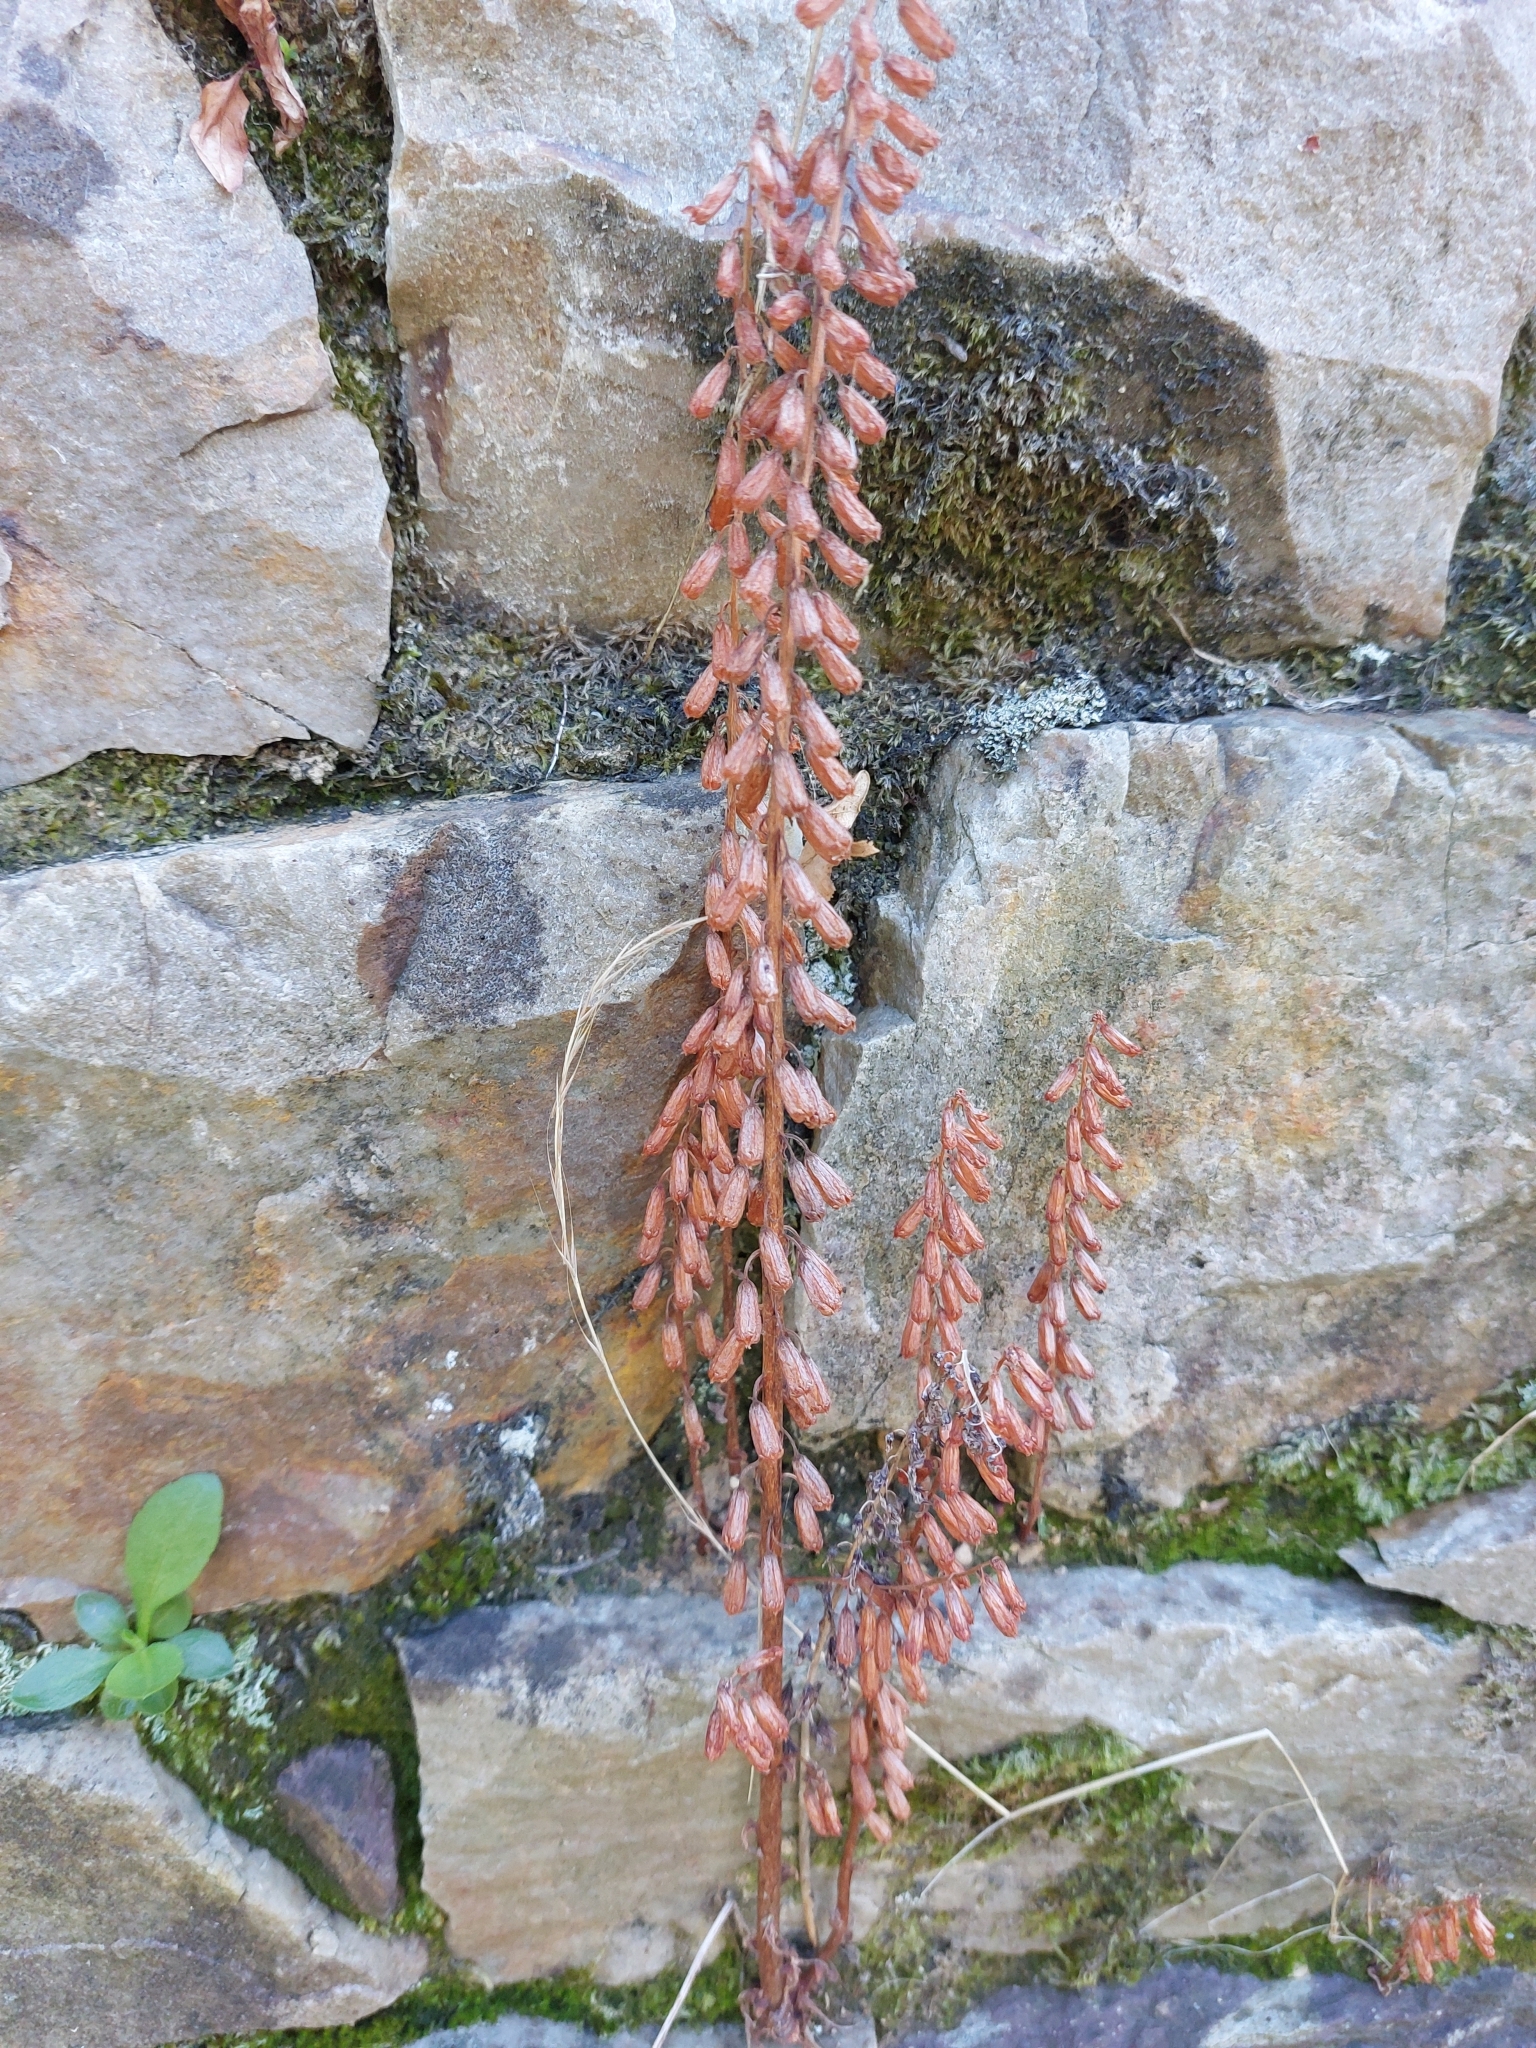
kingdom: Plantae
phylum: Tracheophyta
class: Magnoliopsida
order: Saxifragales
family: Crassulaceae
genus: Umbilicus
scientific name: Umbilicus rupestris
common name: Navelwort
